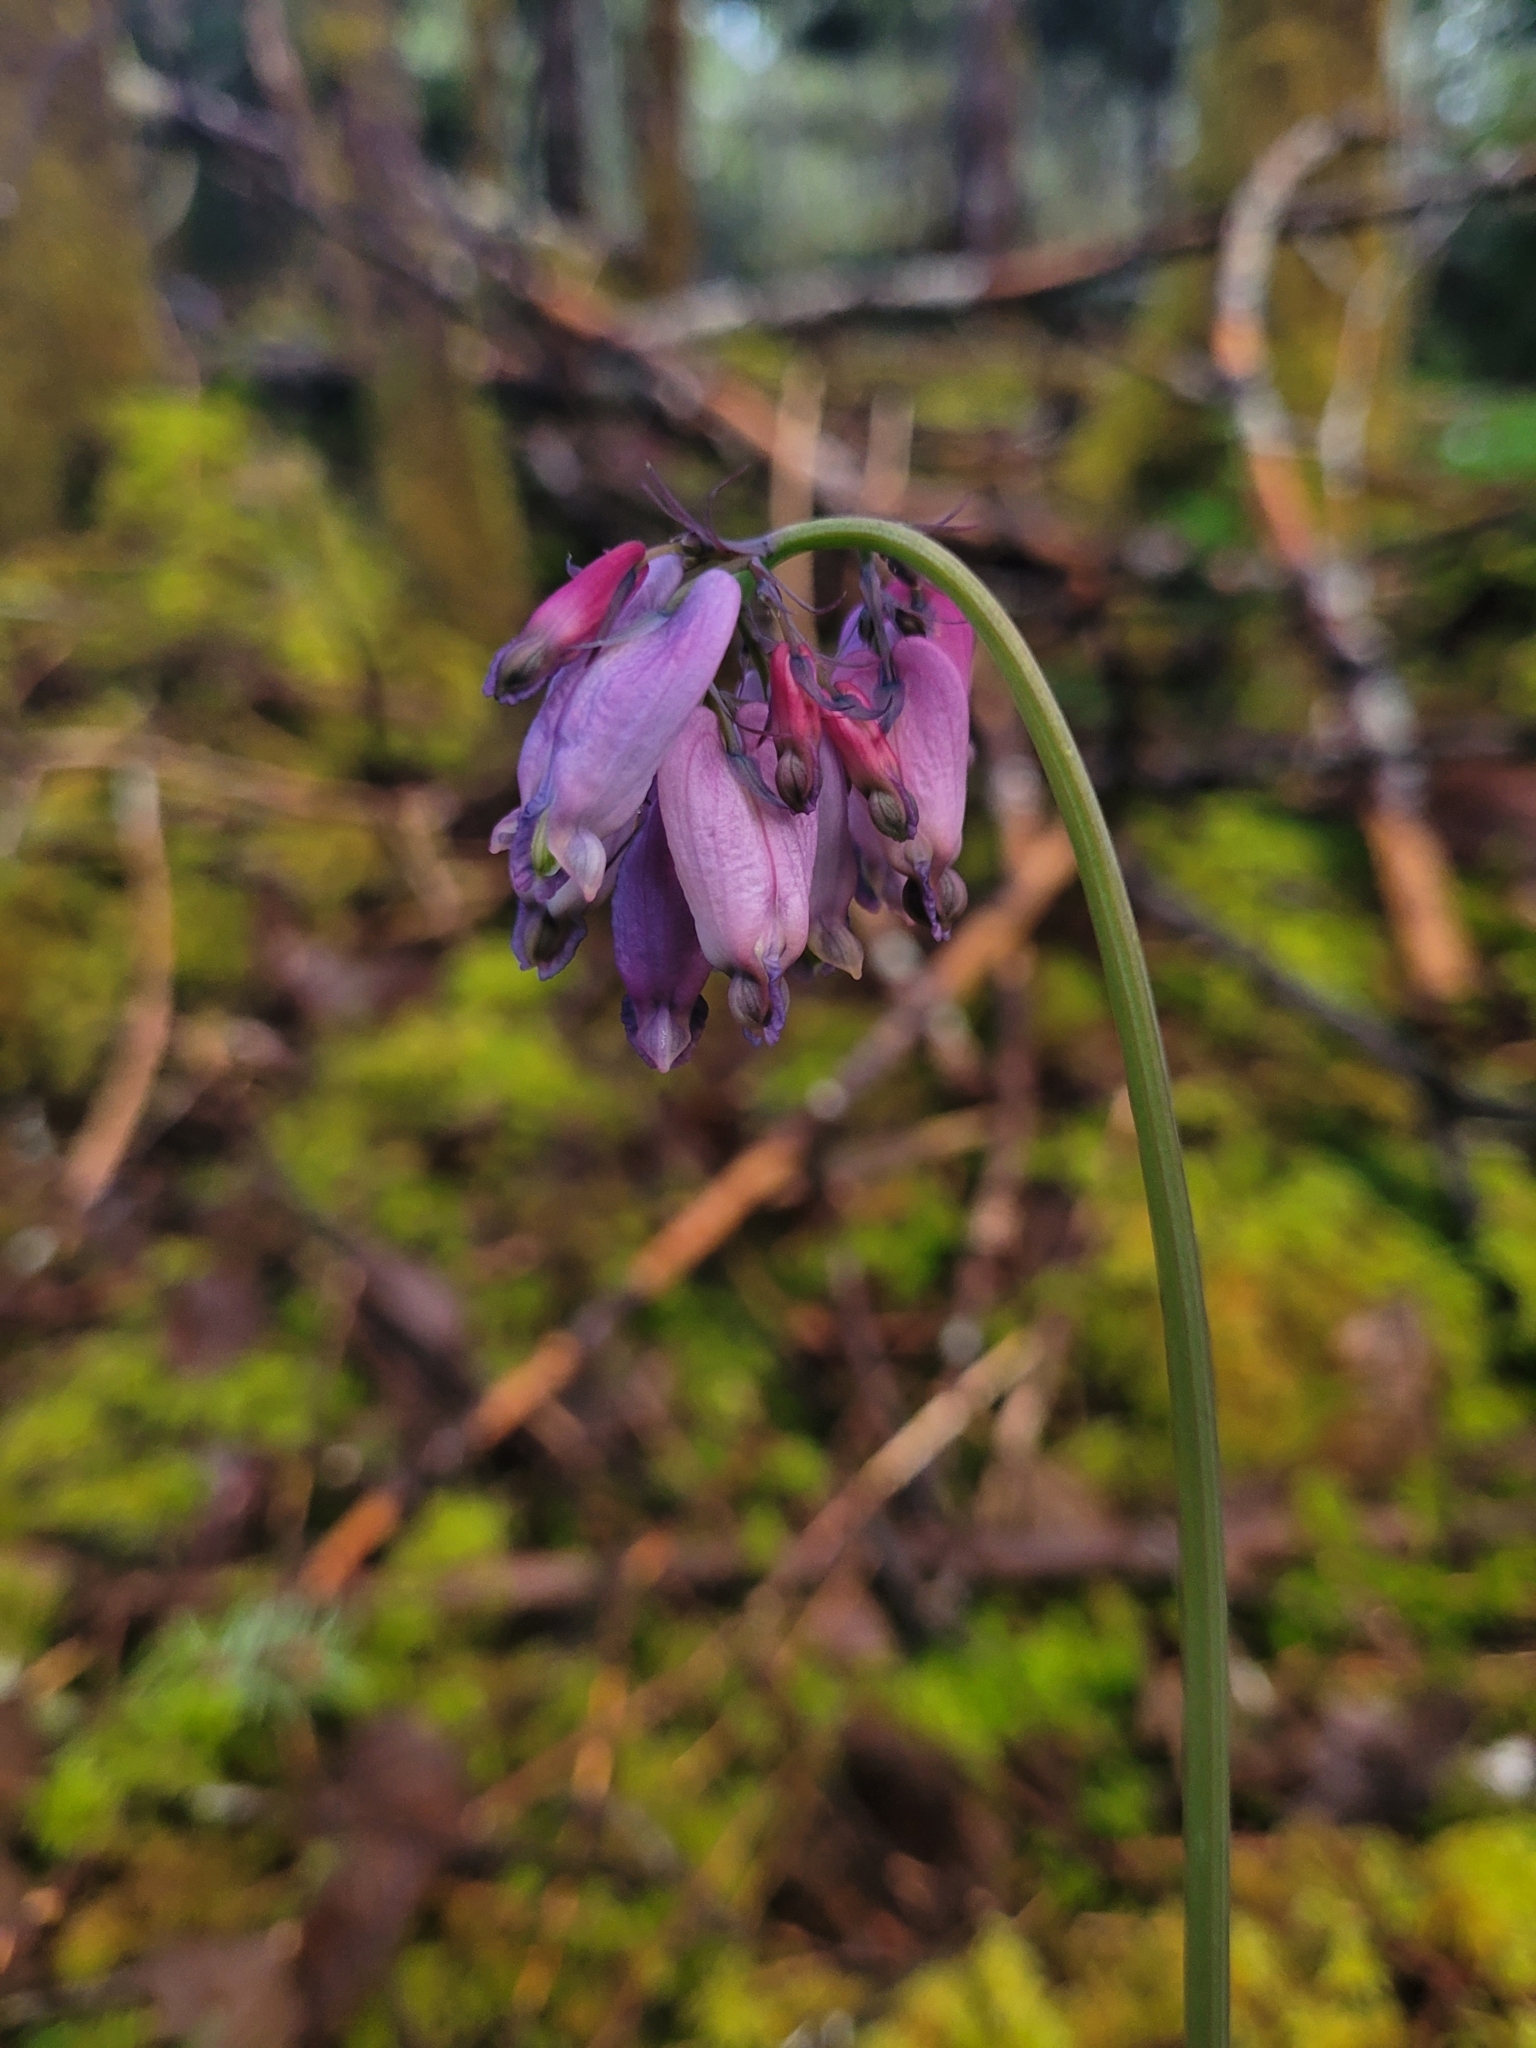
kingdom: Plantae
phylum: Tracheophyta
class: Magnoliopsida
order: Ranunculales
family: Papaveraceae
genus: Dicentra
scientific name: Dicentra formosa
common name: Bleeding-heart
